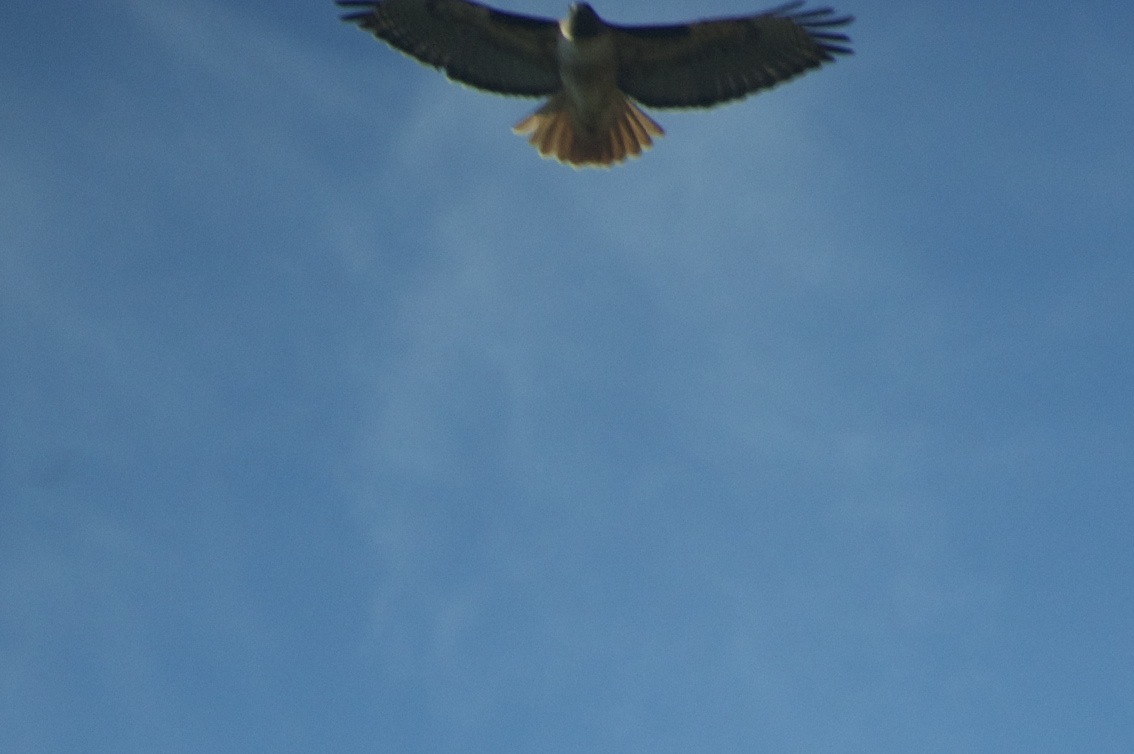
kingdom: Animalia
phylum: Chordata
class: Aves
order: Accipitriformes
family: Accipitridae
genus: Buteo
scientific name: Buteo jamaicensis
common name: Red-tailed hawk
